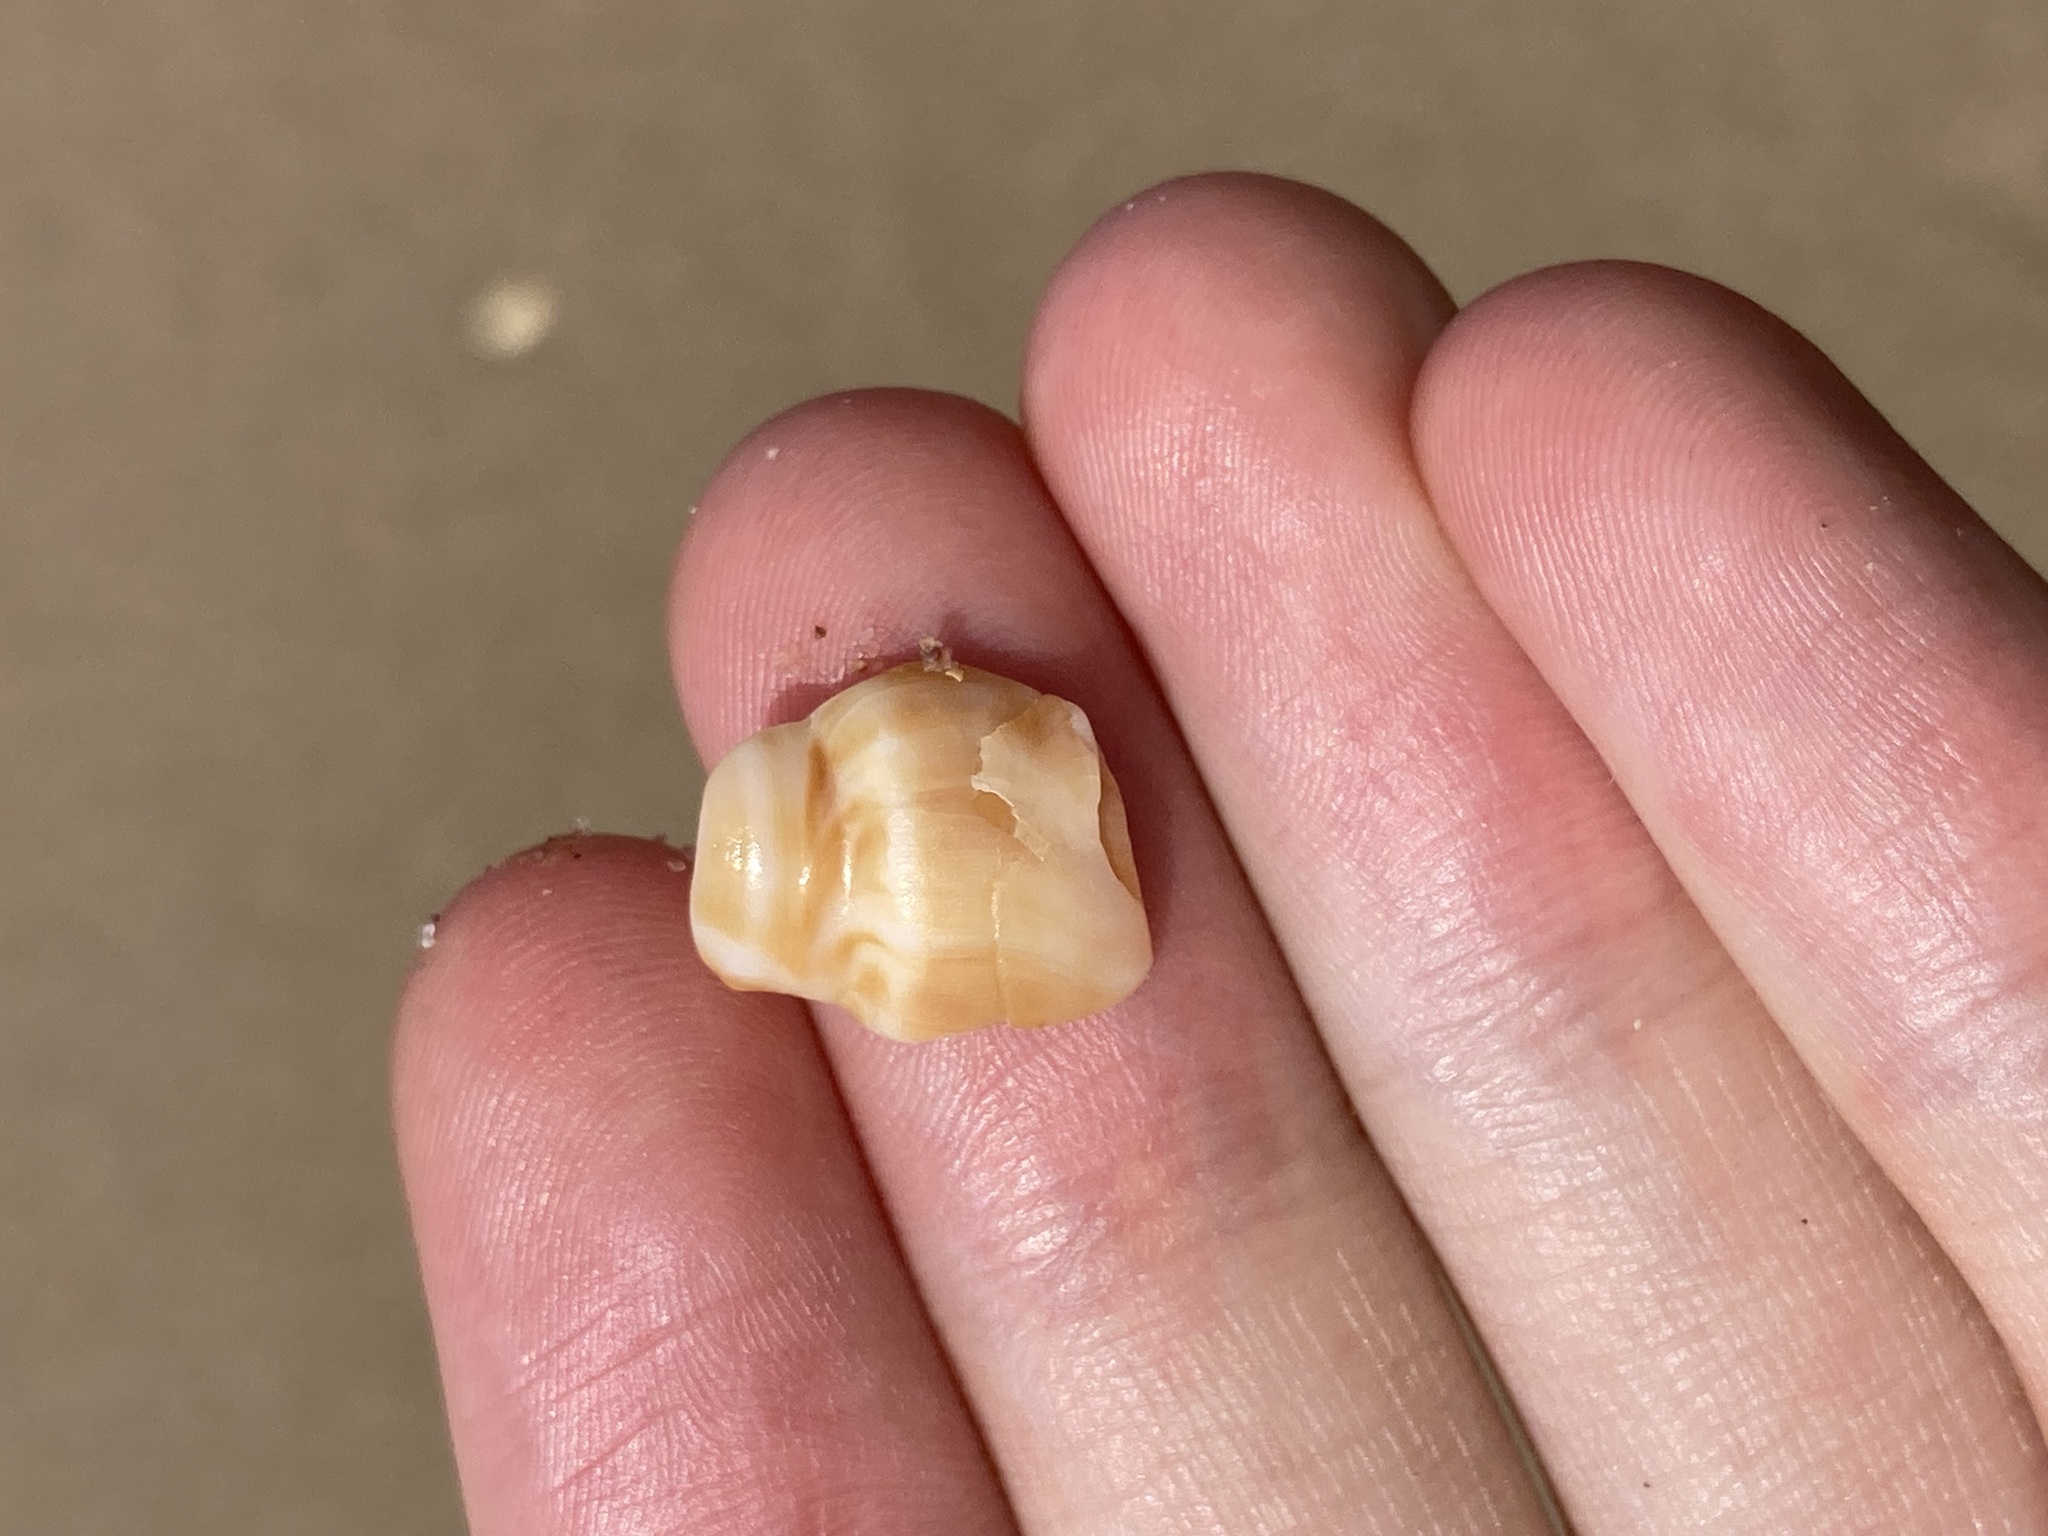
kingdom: Animalia
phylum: Mollusca
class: Gastropoda
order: Littorinimorpha
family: Struthiolariidae
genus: Tylospira
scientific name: Tylospira scutulata
